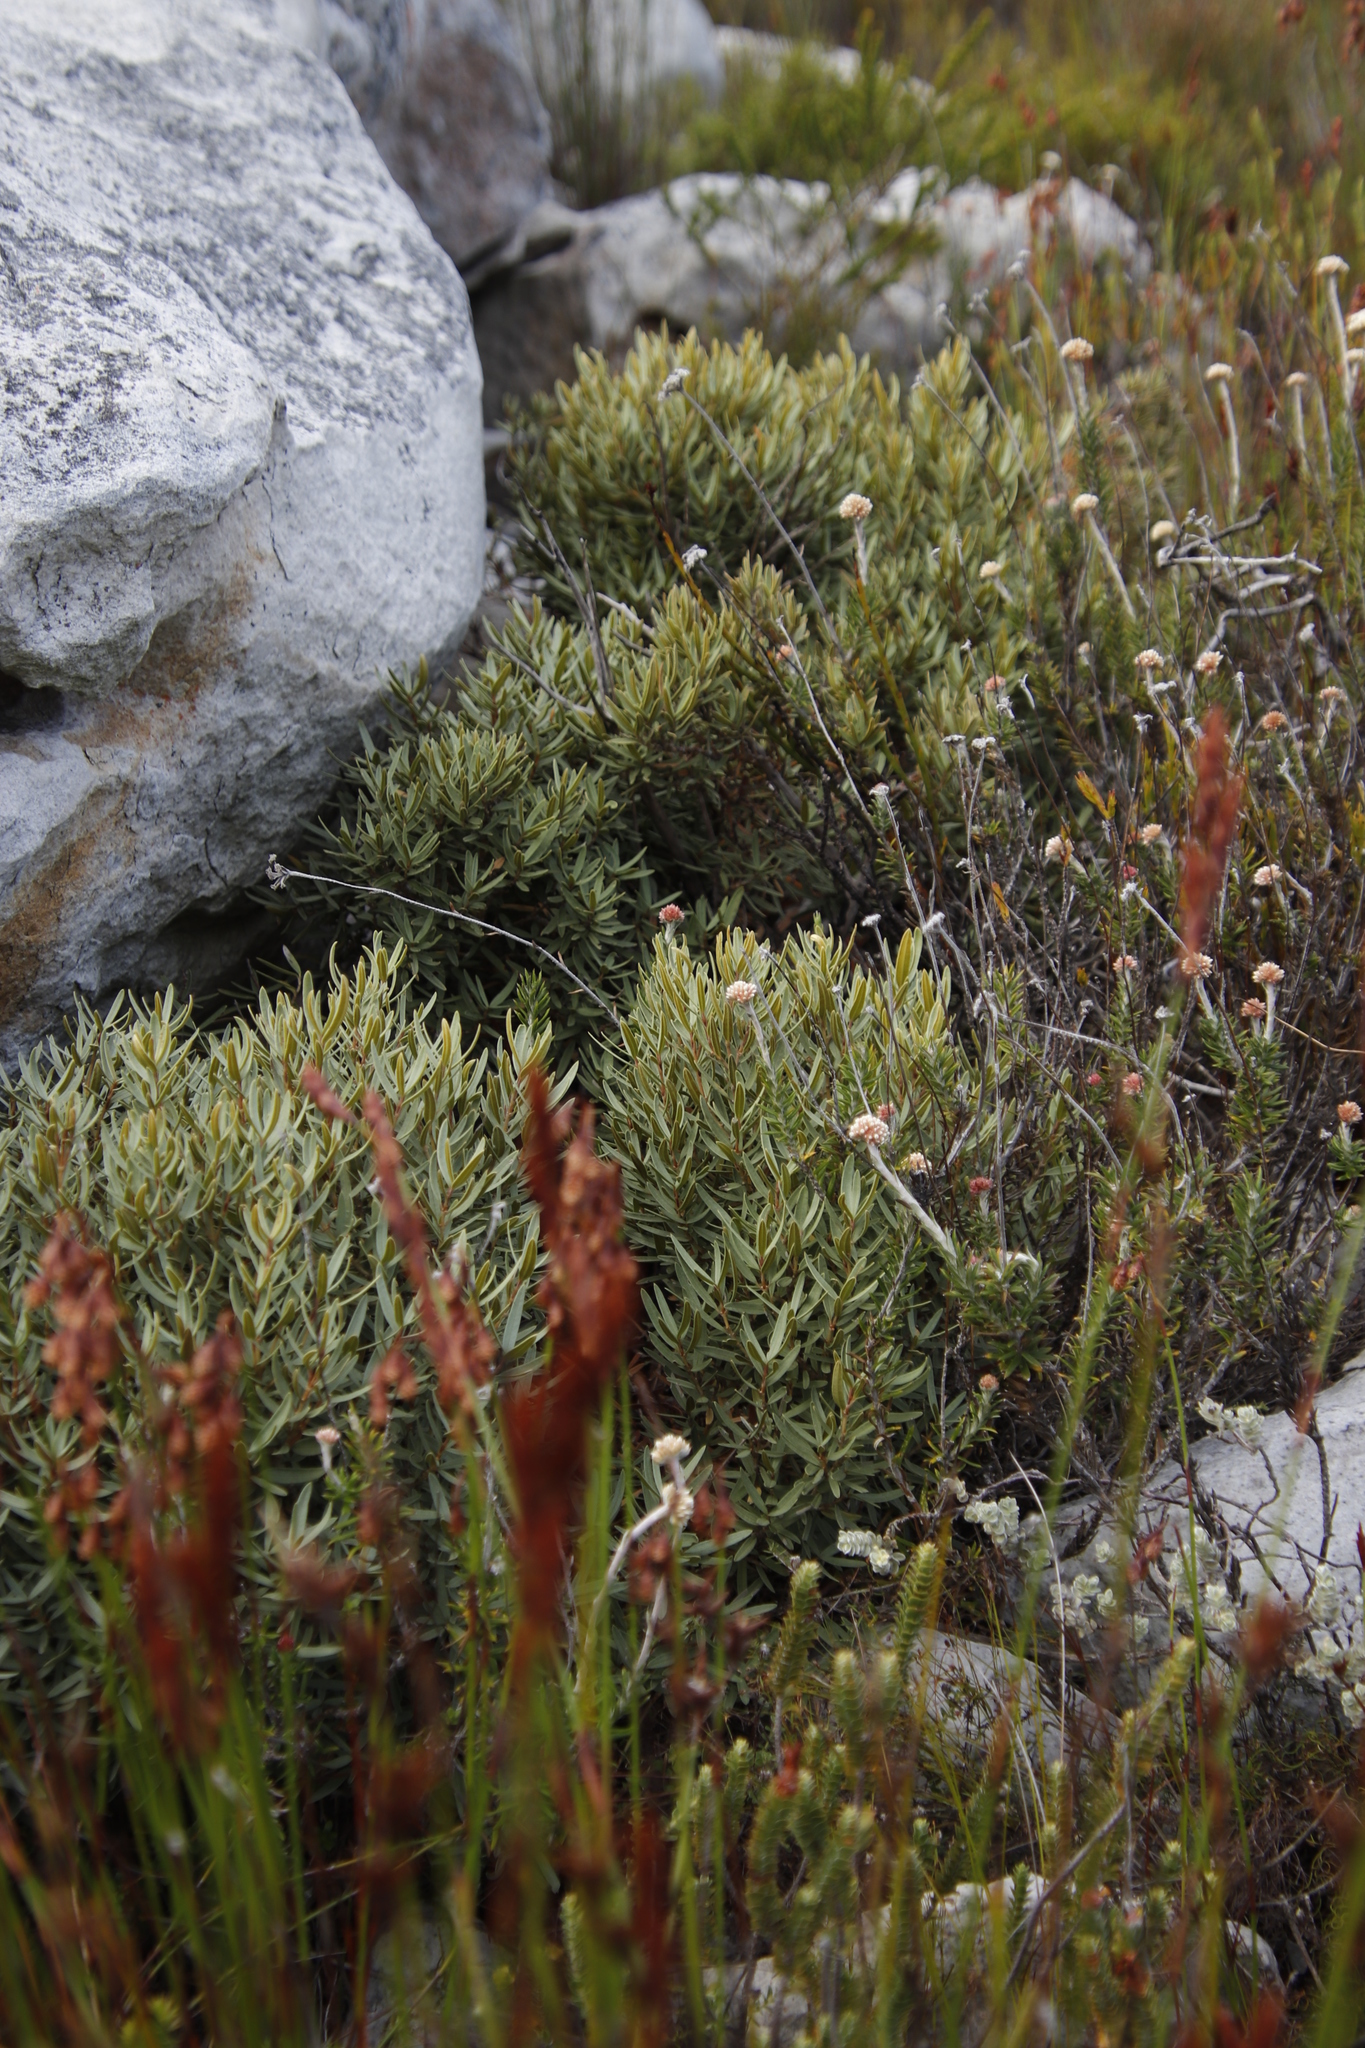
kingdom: Plantae
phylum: Tracheophyta
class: Magnoliopsida
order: Cornales
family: Grubbiaceae
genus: Grubbia
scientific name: Grubbia tomentosa
